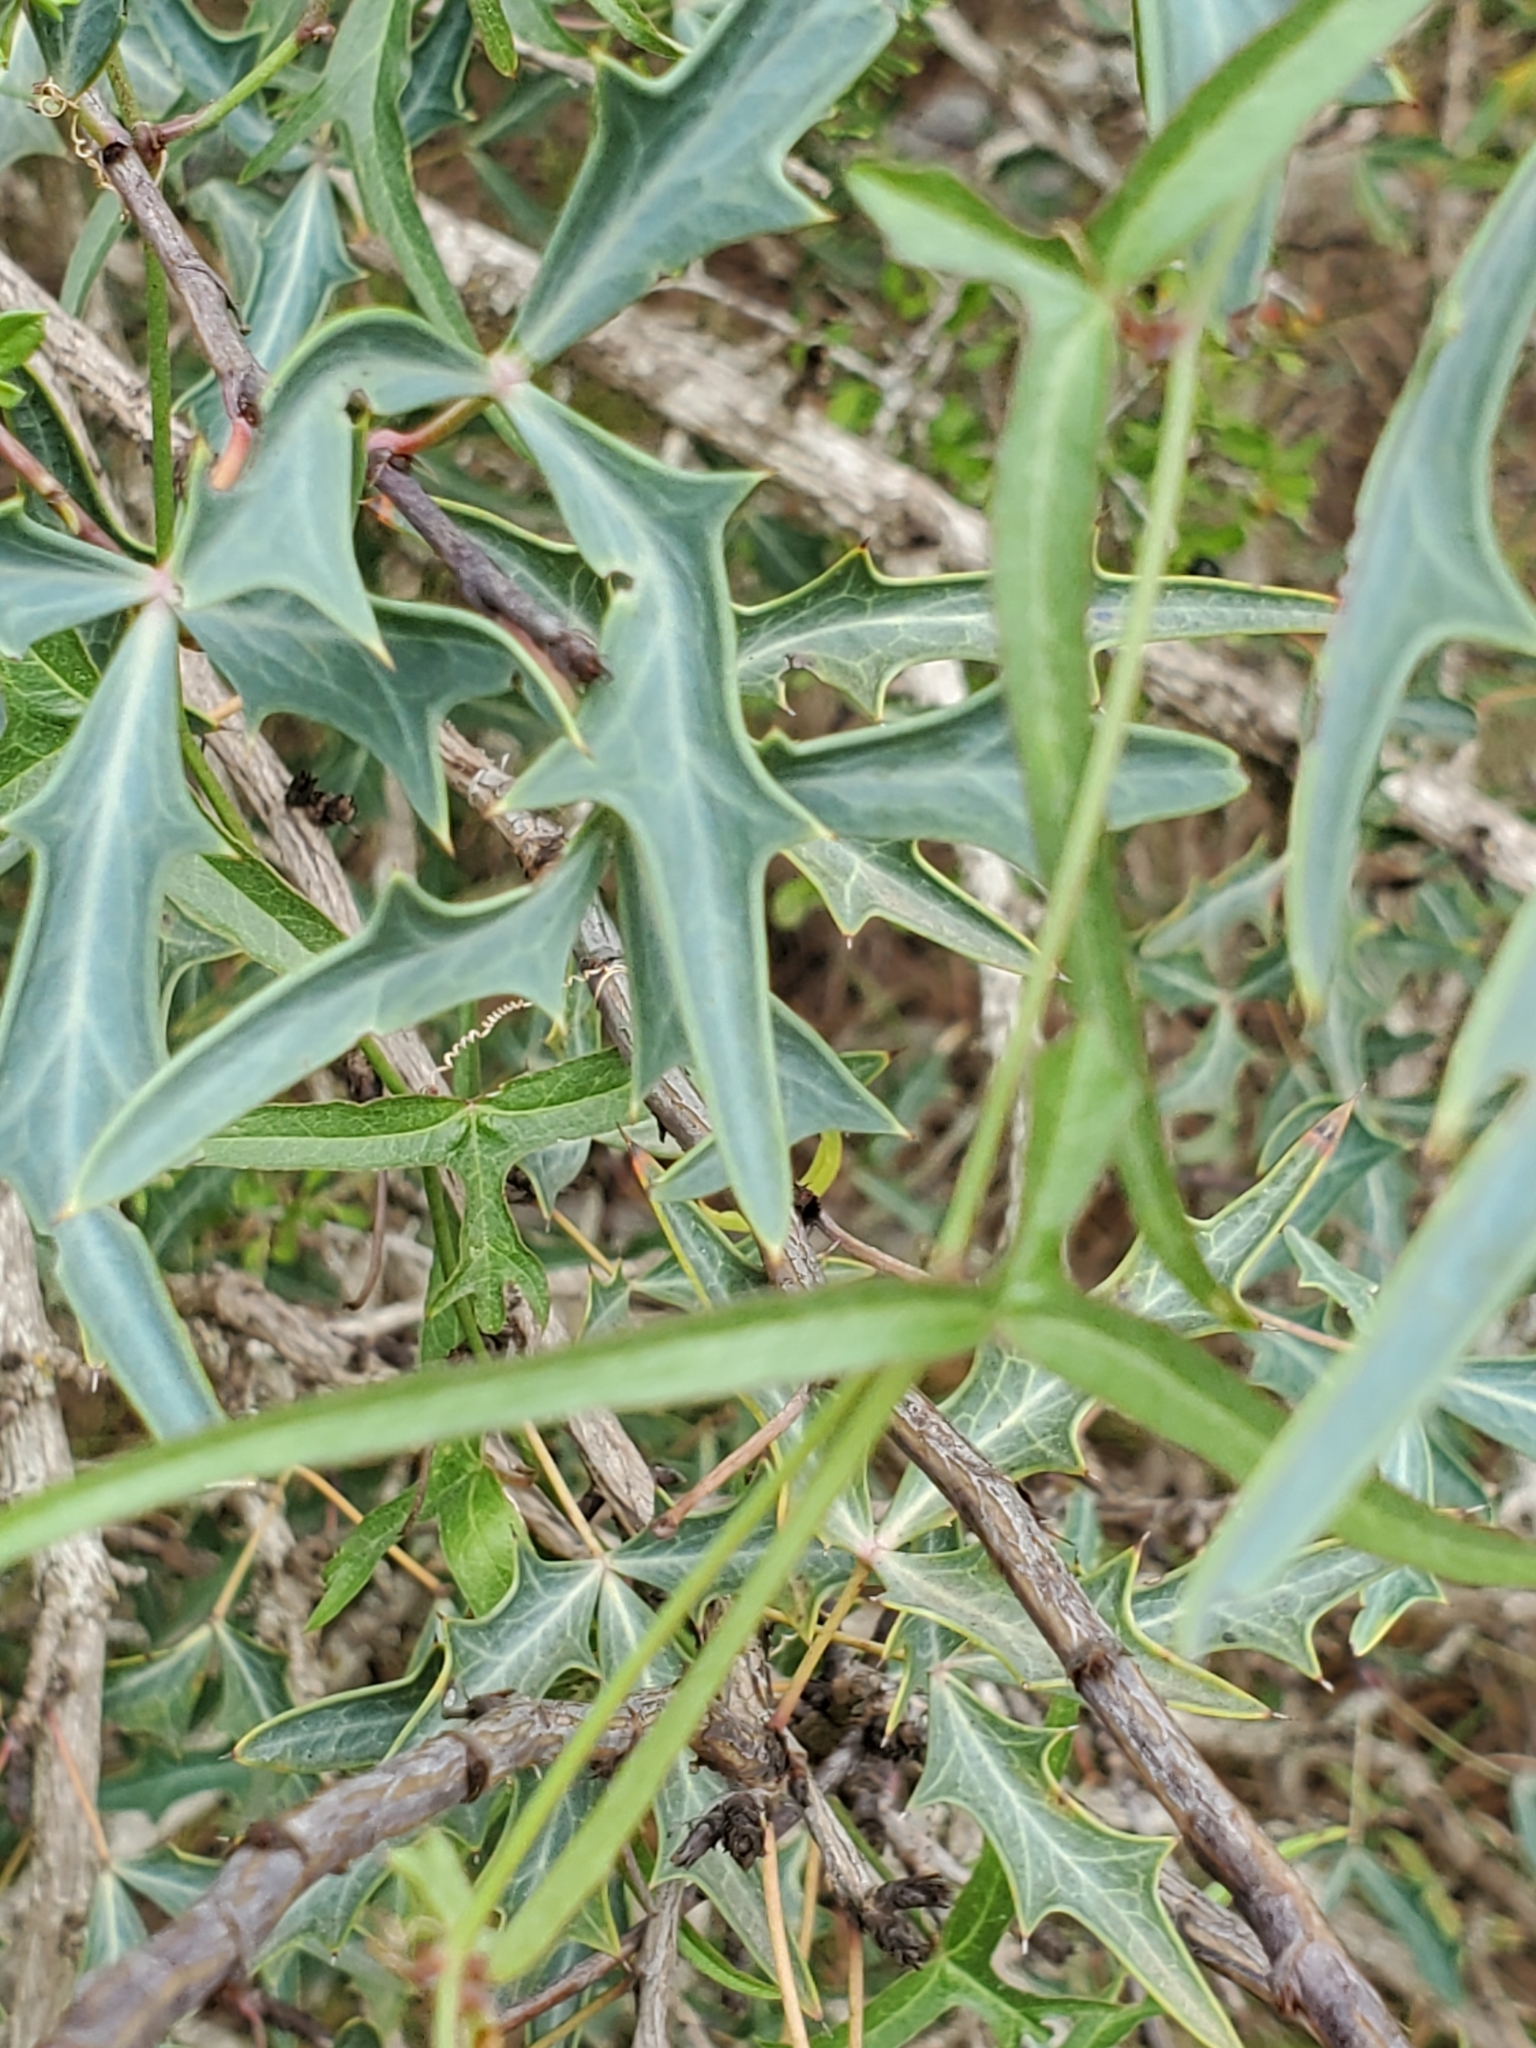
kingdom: Plantae
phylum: Tracheophyta
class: Magnoliopsida
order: Malpighiales
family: Passifloraceae
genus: Passiflora
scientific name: Passiflora tenuiloba
